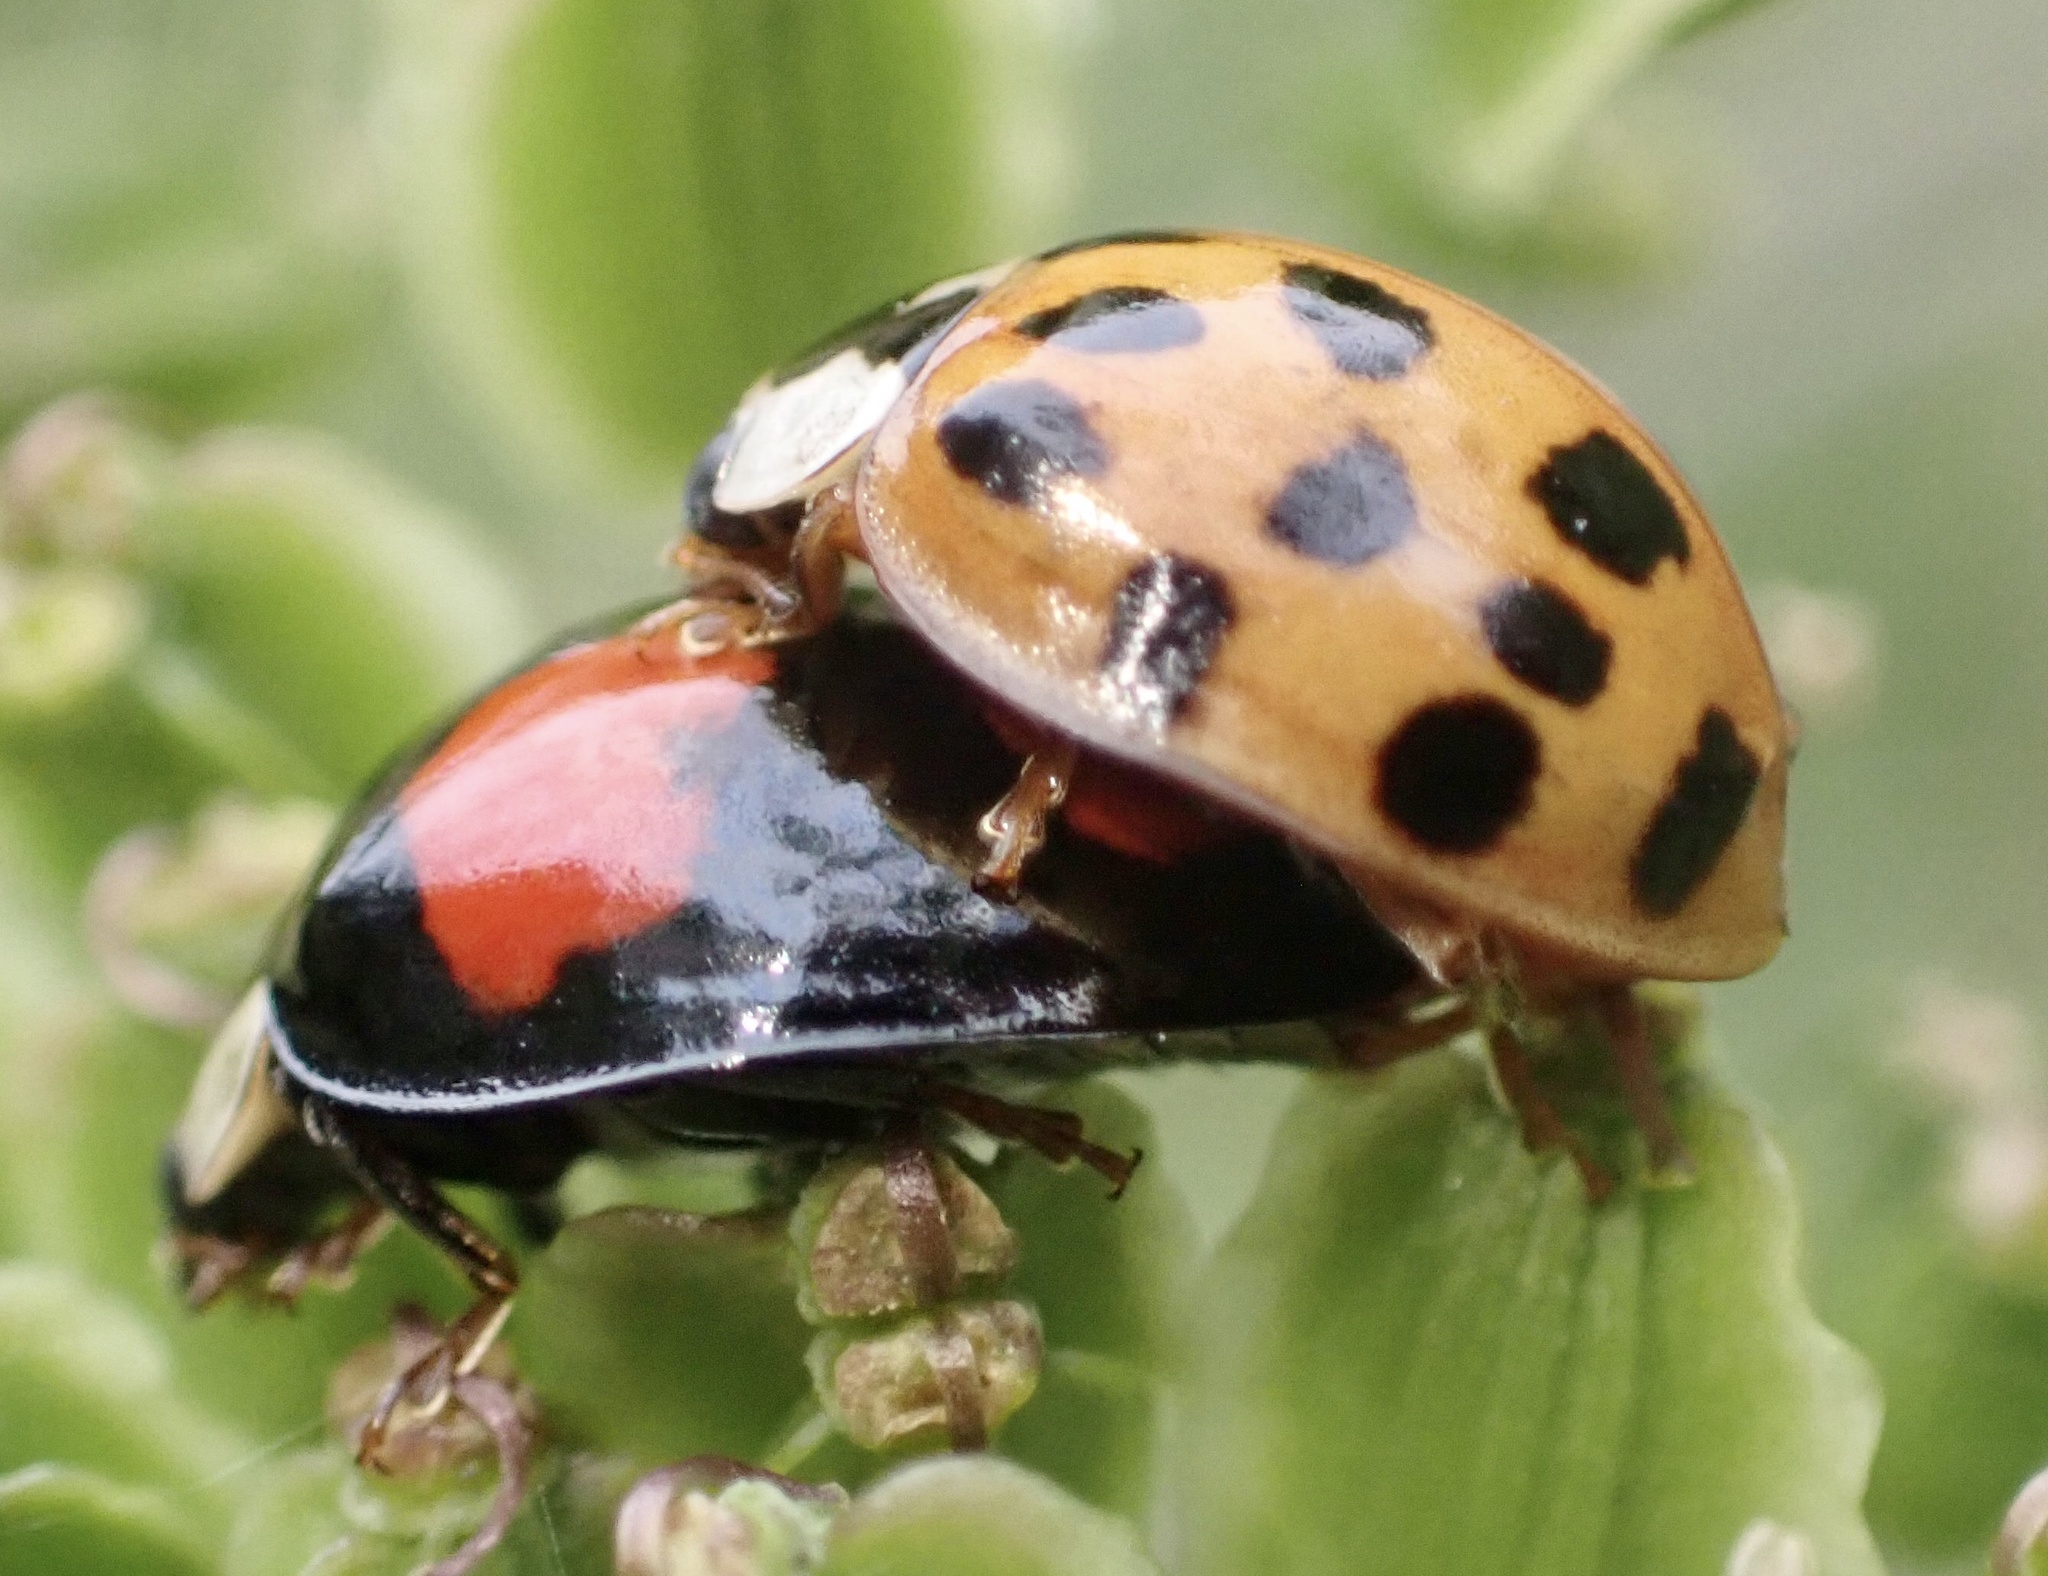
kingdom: Animalia
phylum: Arthropoda
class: Insecta
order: Coleoptera
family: Coccinellidae
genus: Harmonia
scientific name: Harmonia axyridis
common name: Harlequin ladybird
